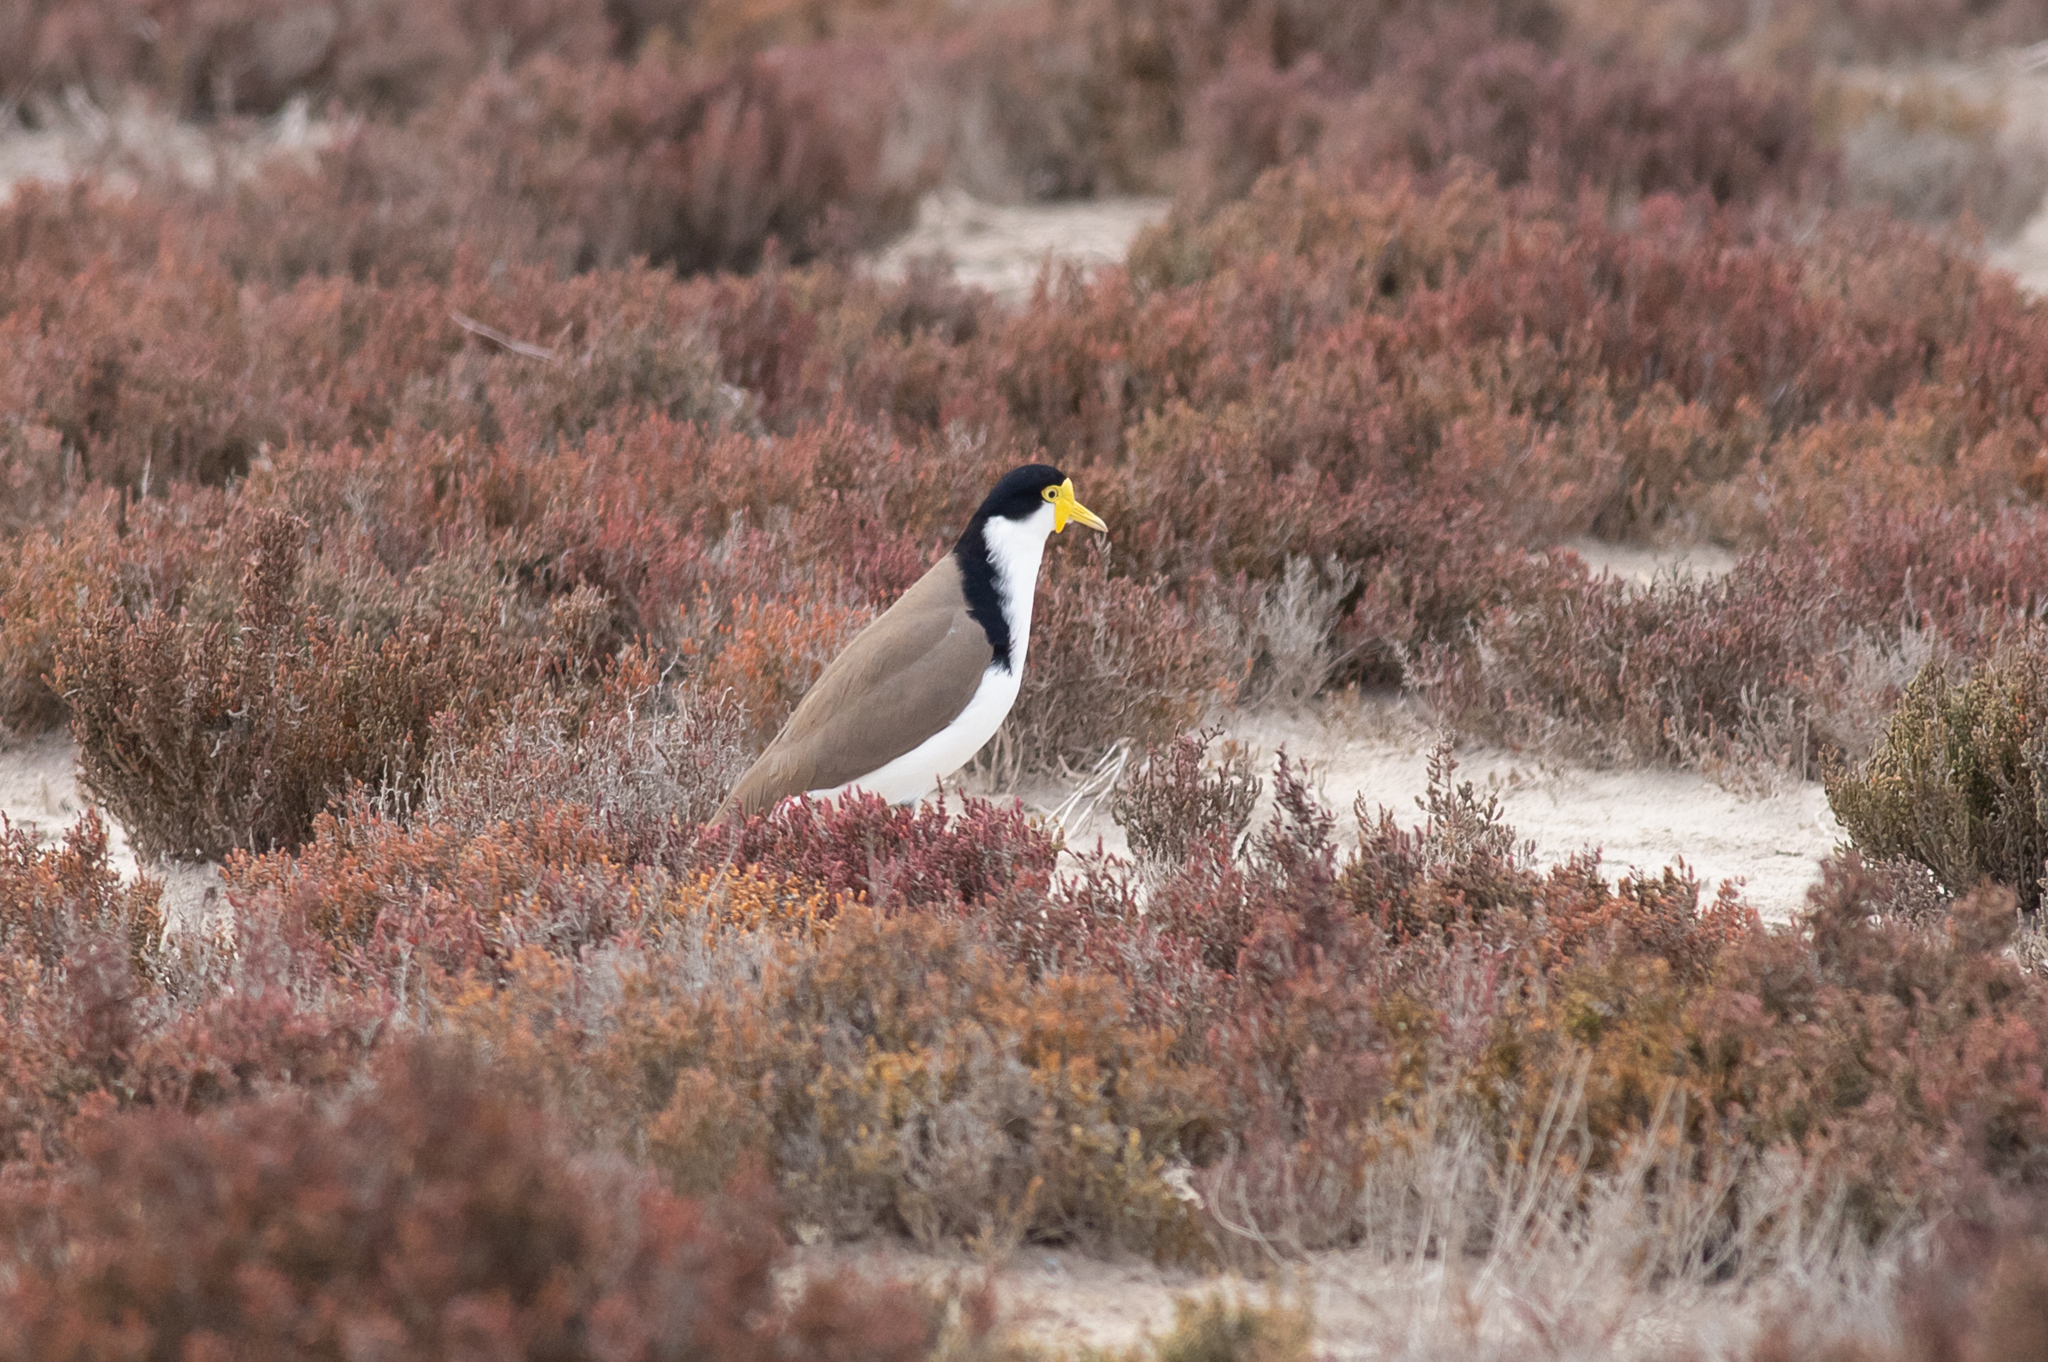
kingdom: Animalia
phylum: Chordata
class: Aves
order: Charadriiformes
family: Charadriidae
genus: Vanellus
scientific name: Vanellus miles
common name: Masked lapwing
